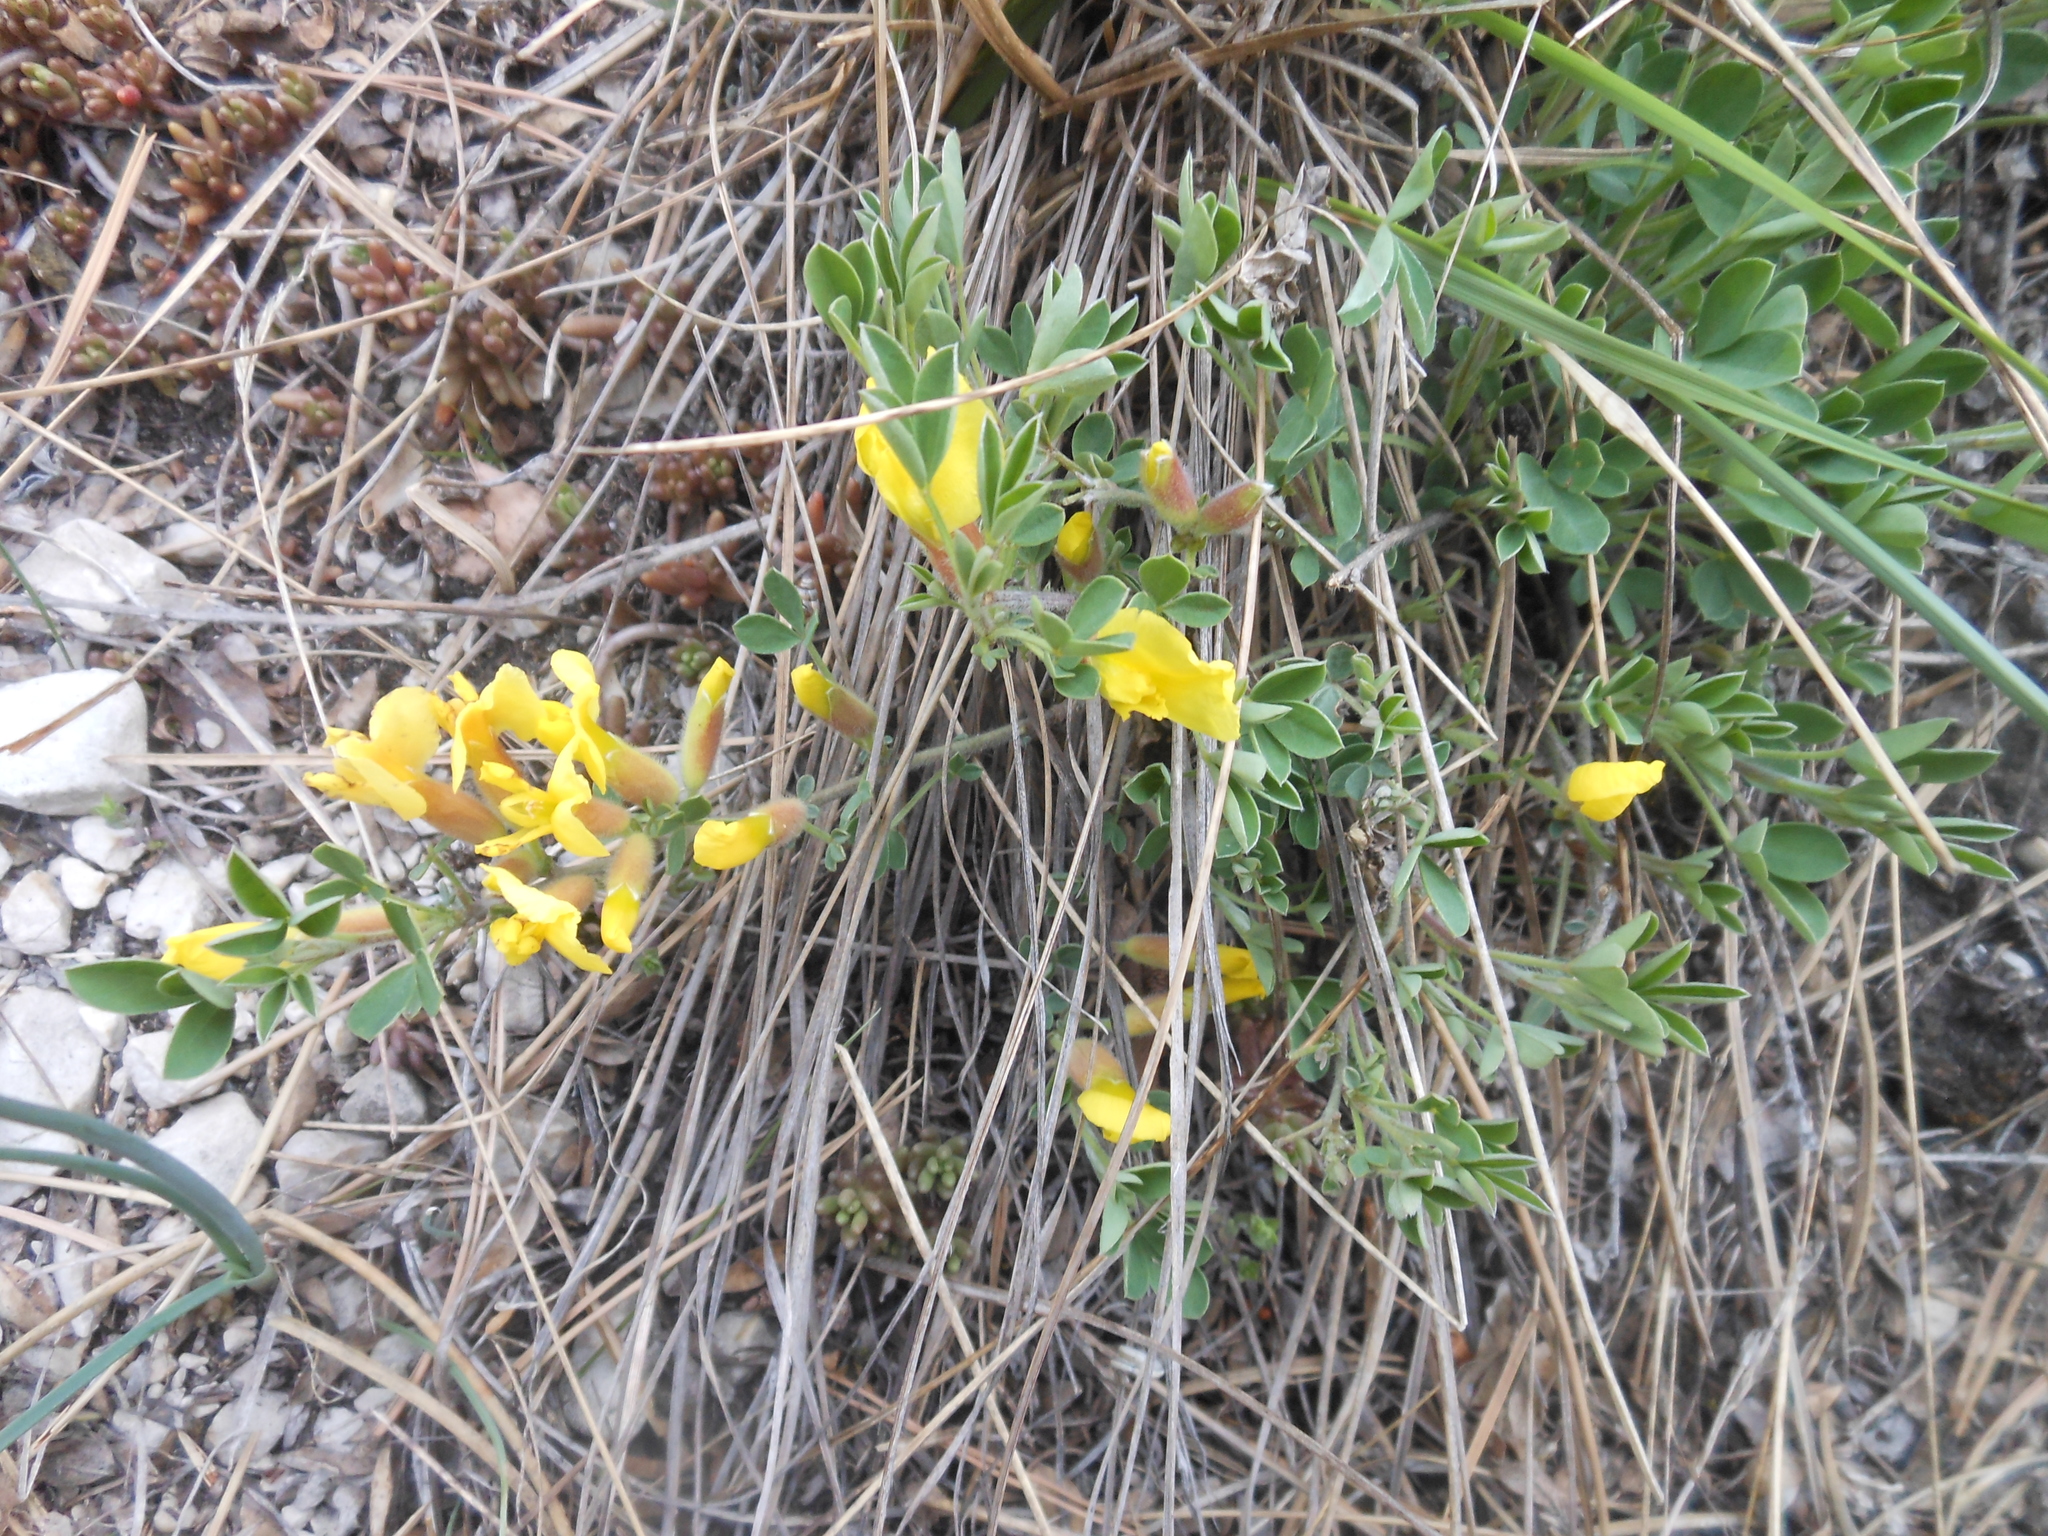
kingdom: Plantae
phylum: Tracheophyta
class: Magnoliopsida
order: Fabales
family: Fabaceae
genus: Chamaecytisus
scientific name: Chamaecytisus ratisbonensis
